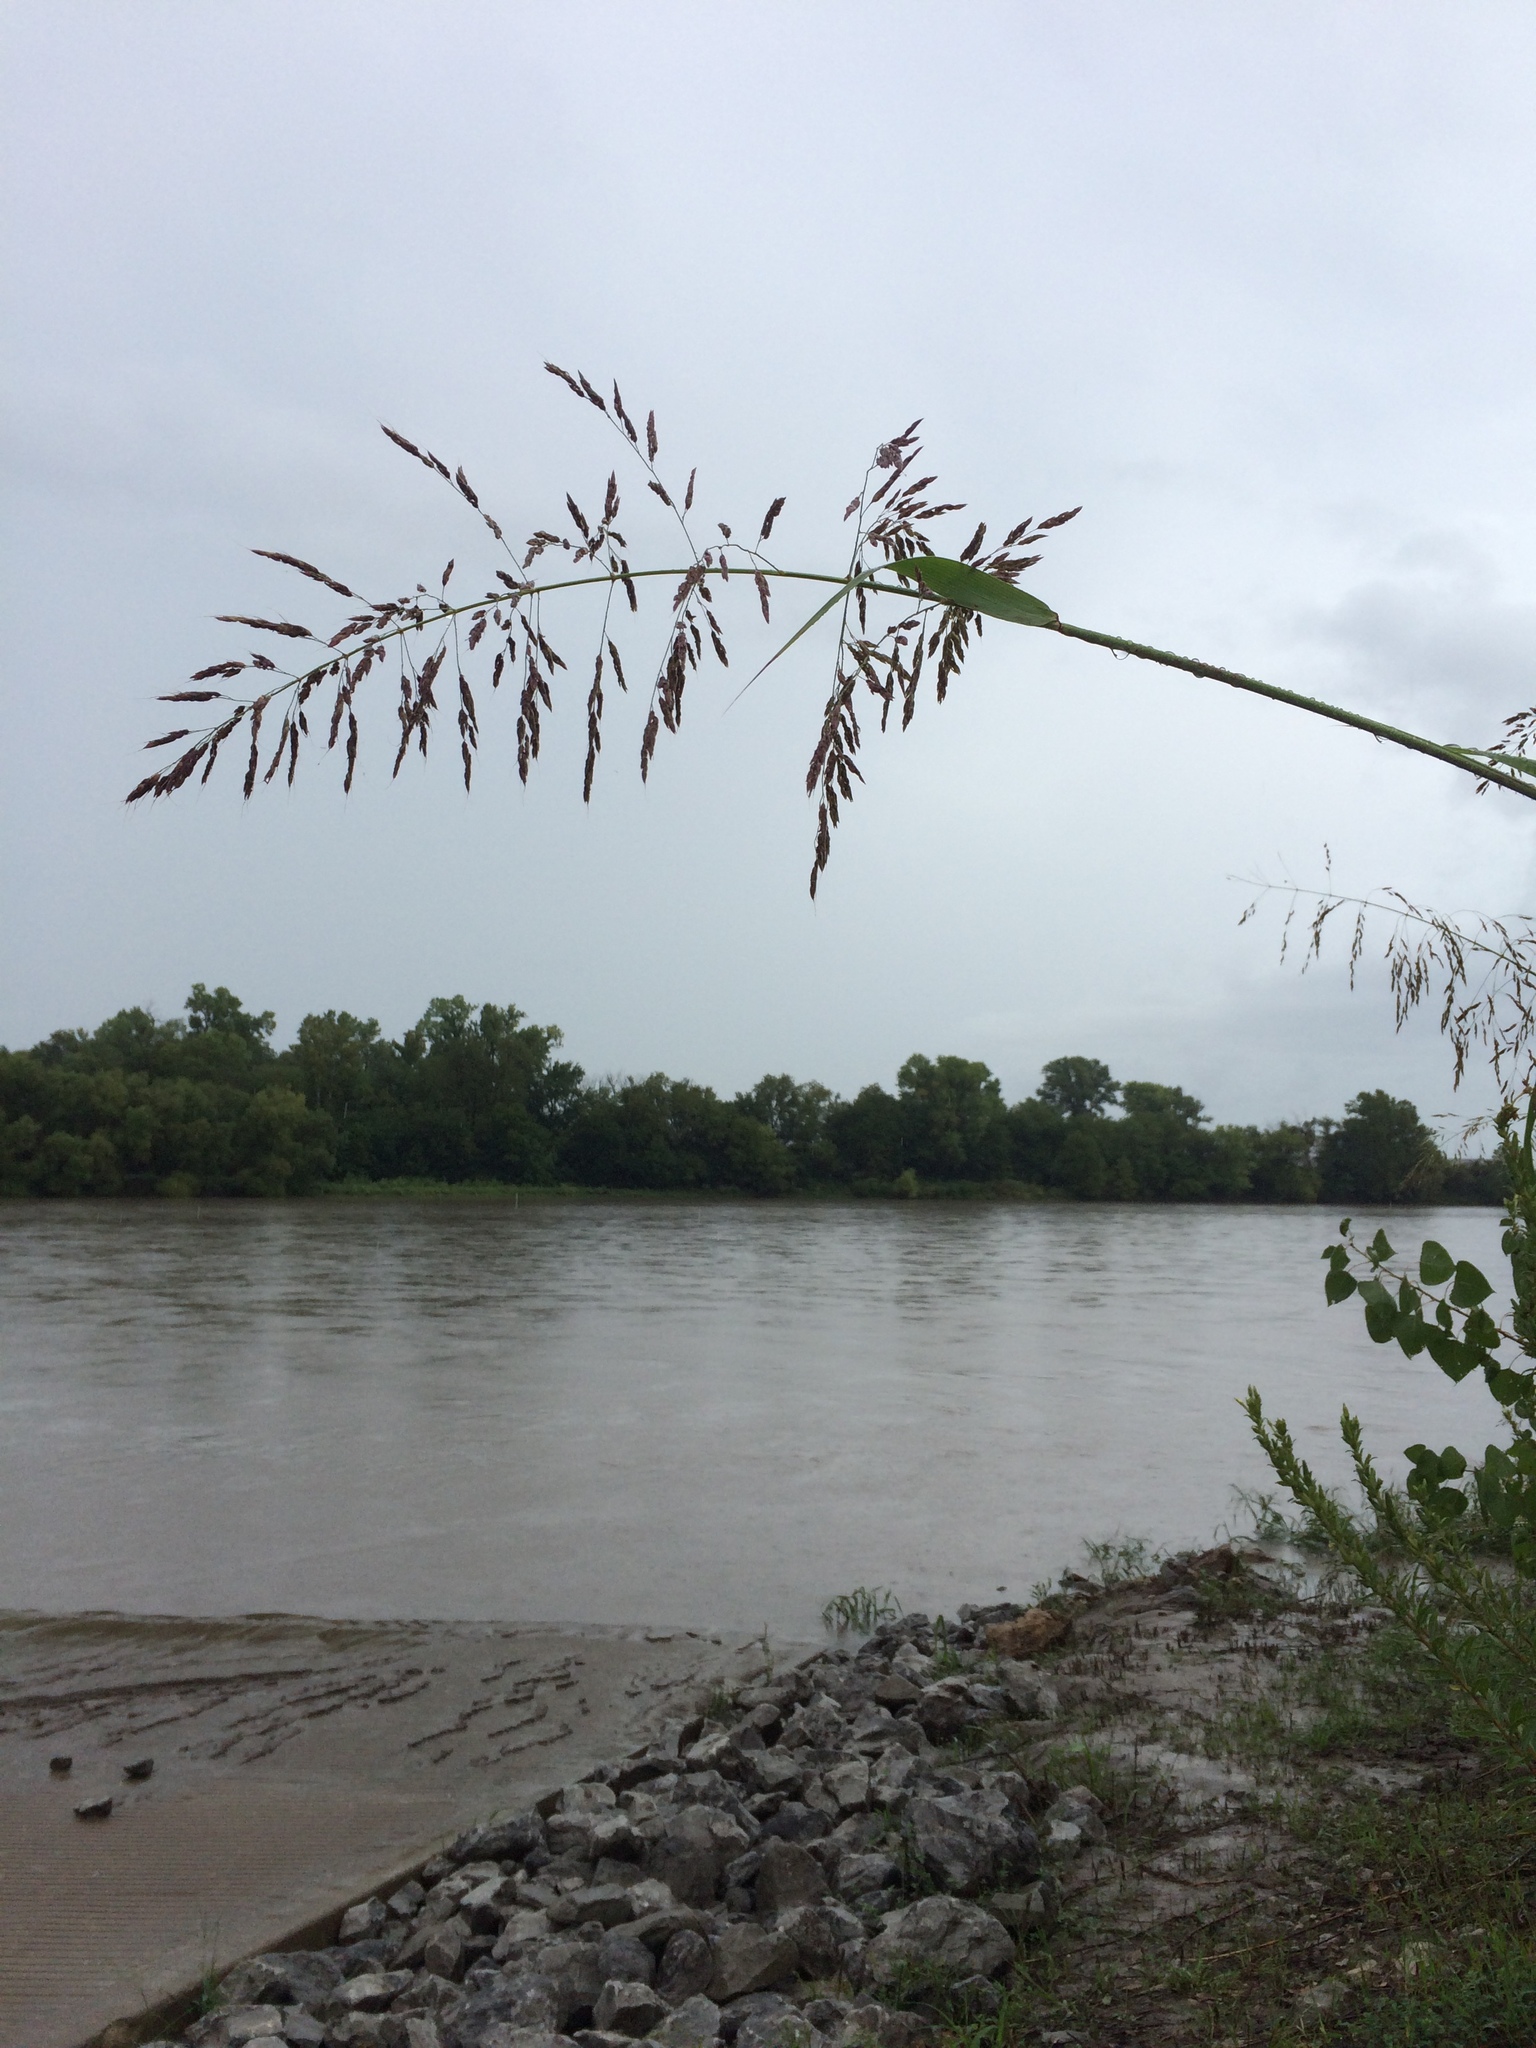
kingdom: Plantae
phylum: Tracheophyta
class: Liliopsida
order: Poales
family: Poaceae
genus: Sorghum
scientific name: Sorghum halepense
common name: Johnson-grass
